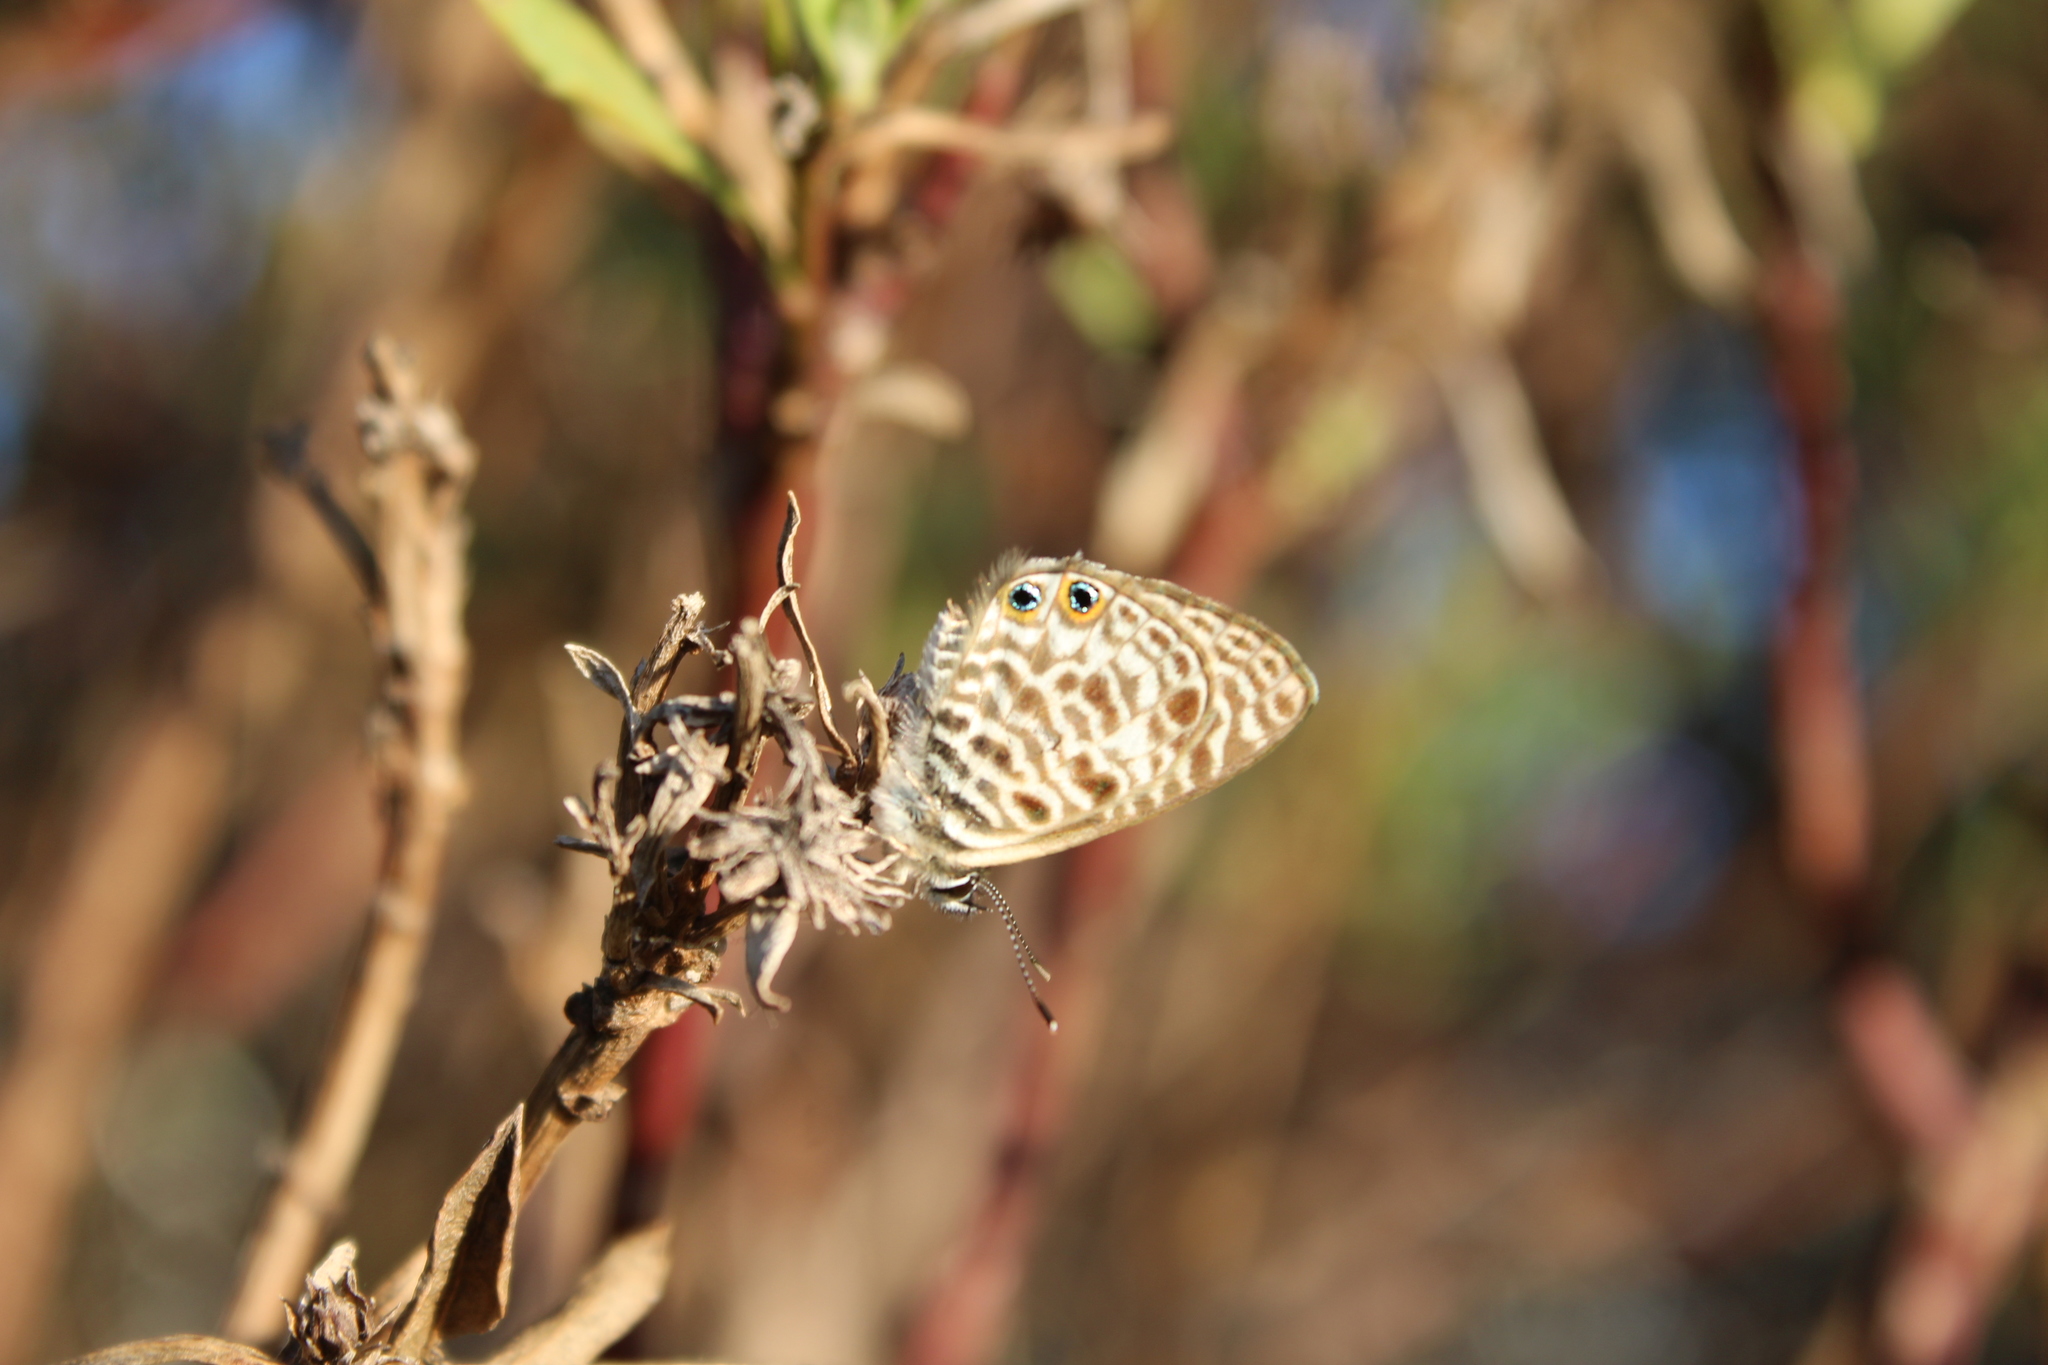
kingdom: Animalia
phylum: Arthropoda
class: Insecta
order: Lepidoptera
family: Lycaenidae
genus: Leptotes
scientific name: Leptotes
